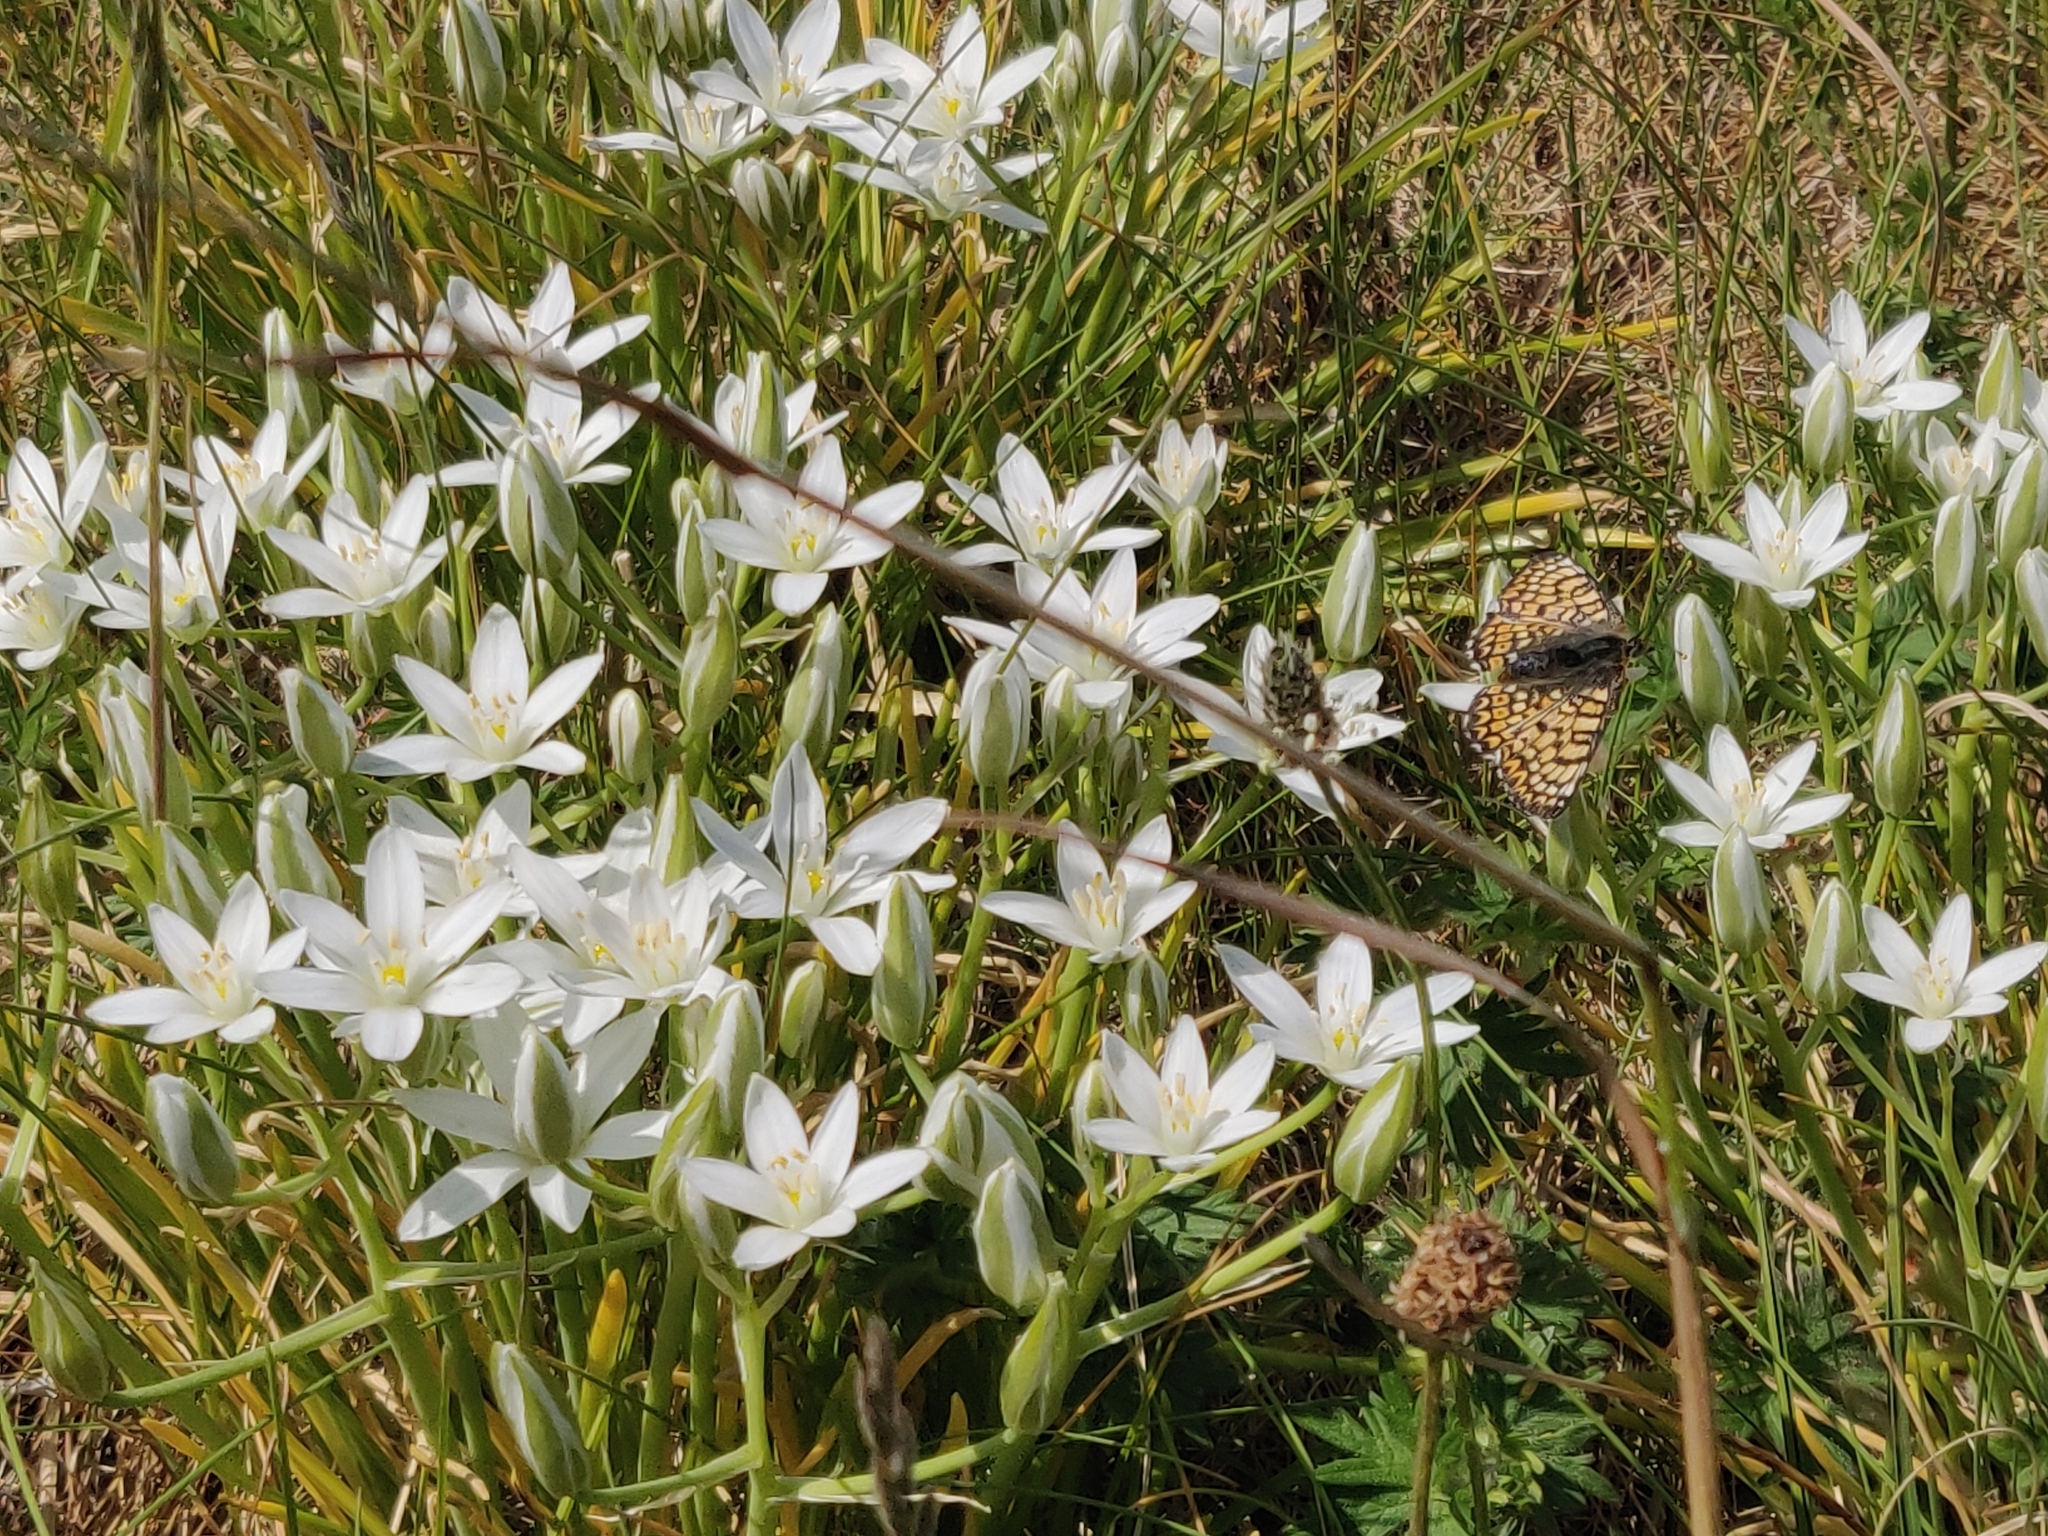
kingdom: Plantae
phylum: Tracheophyta
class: Liliopsida
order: Asparagales
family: Asparagaceae
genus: Ornithogalum
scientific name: Ornithogalum umbellatum
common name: Garden star-of-bethlehem
